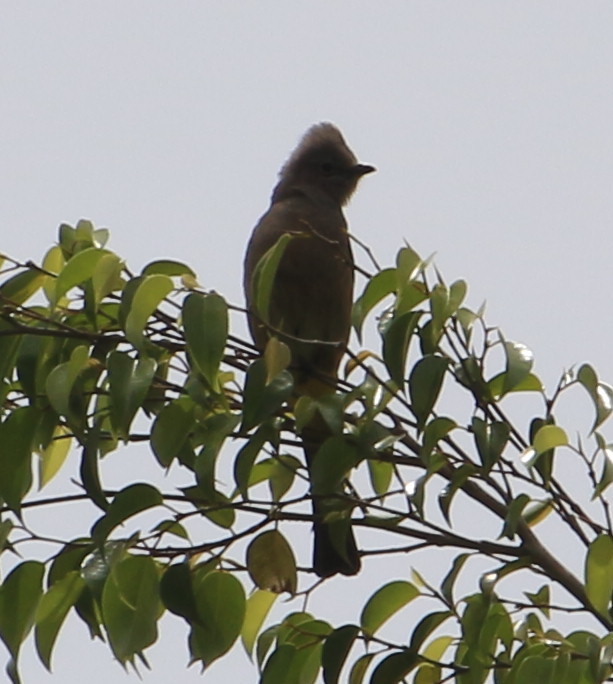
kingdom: Animalia
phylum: Chordata
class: Aves
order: Passeriformes
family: Ptilogonatidae
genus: Ptilogonys
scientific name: Ptilogonys cinereus
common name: Gray silky-flycatcher
